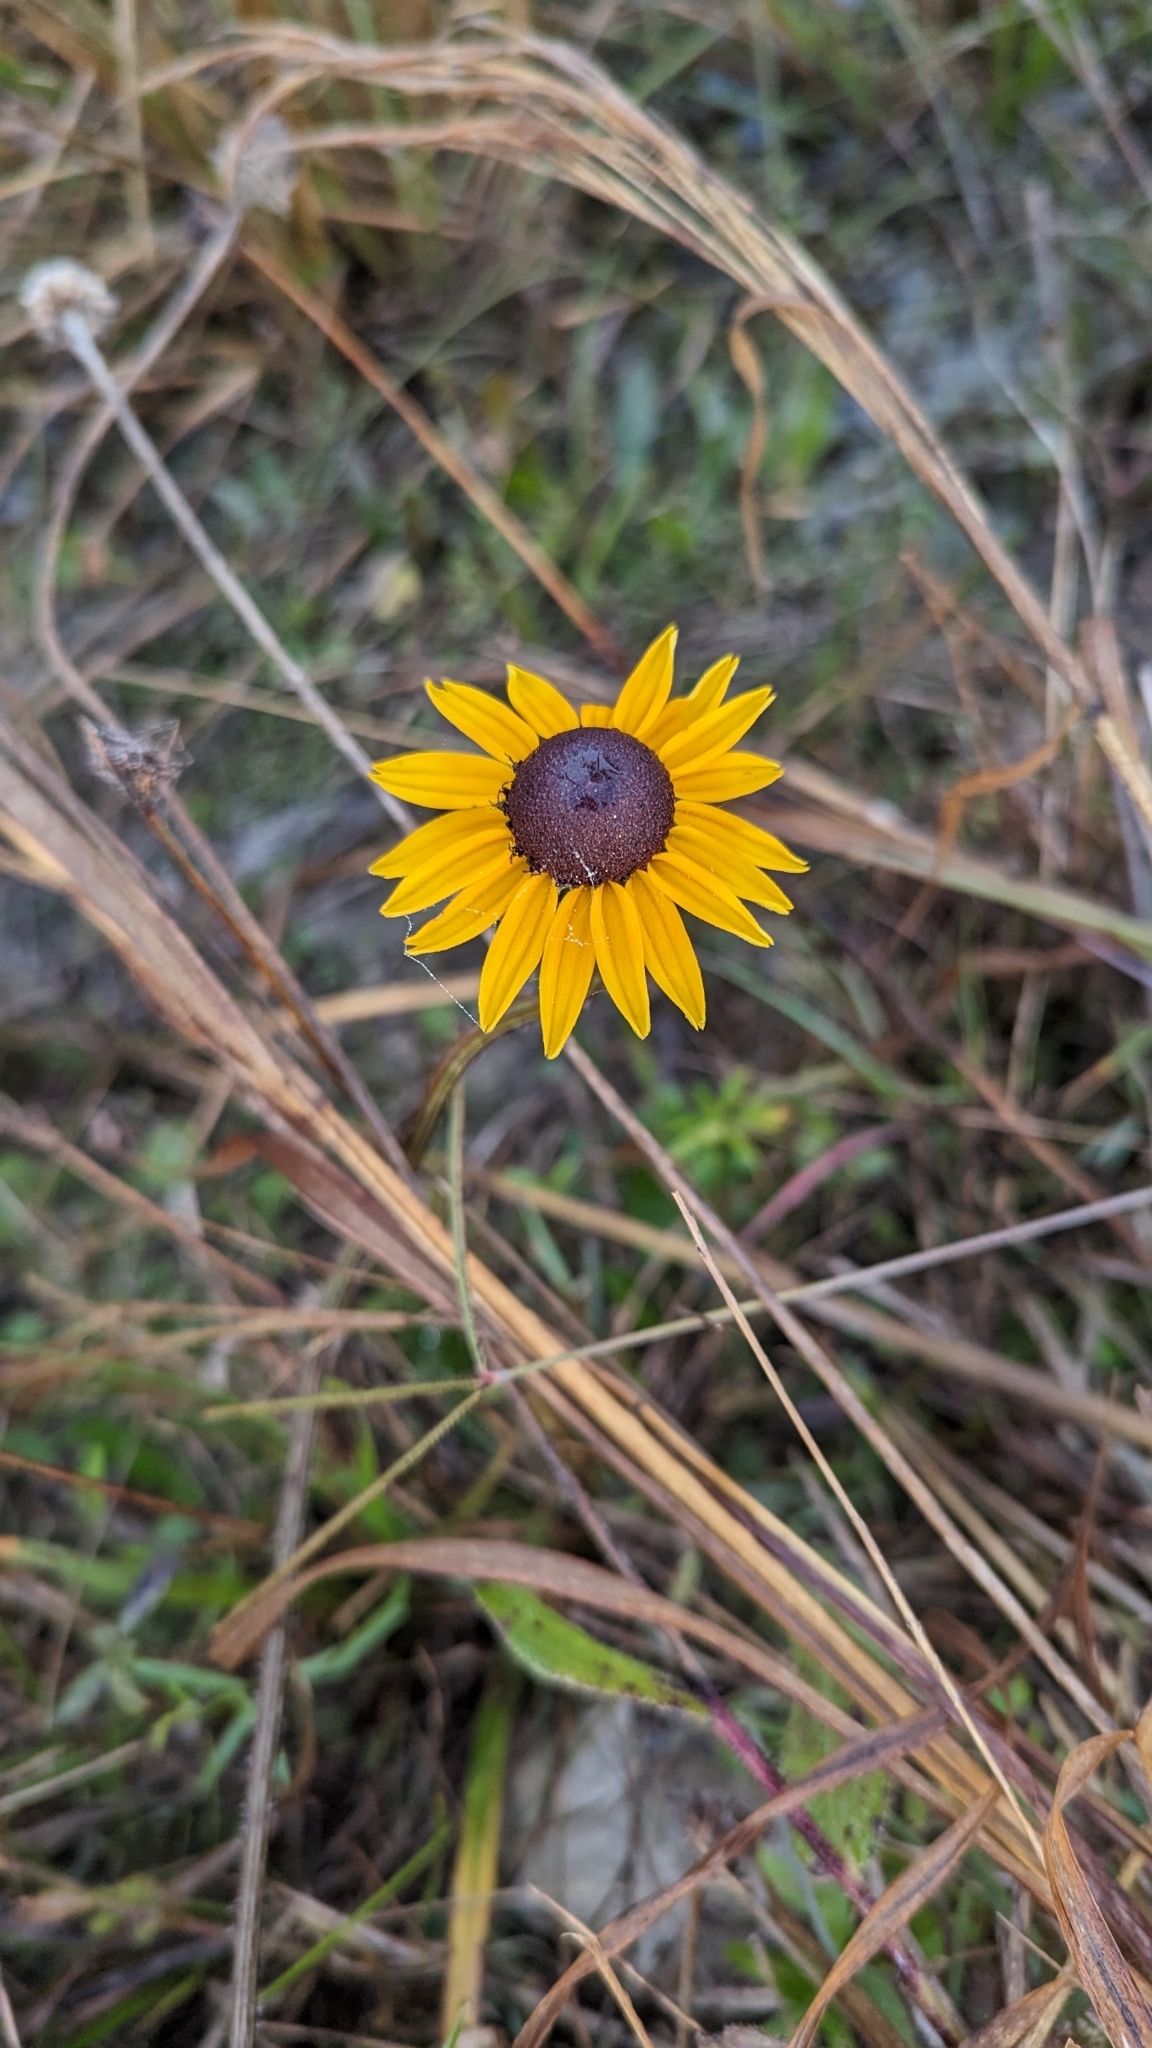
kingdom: Plantae
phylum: Tracheophyta
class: Magnoliopsida
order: Asterales
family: Asteraceae
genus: Rudbeckia
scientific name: Rudbeckia hirta
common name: Black-eyed-susan
